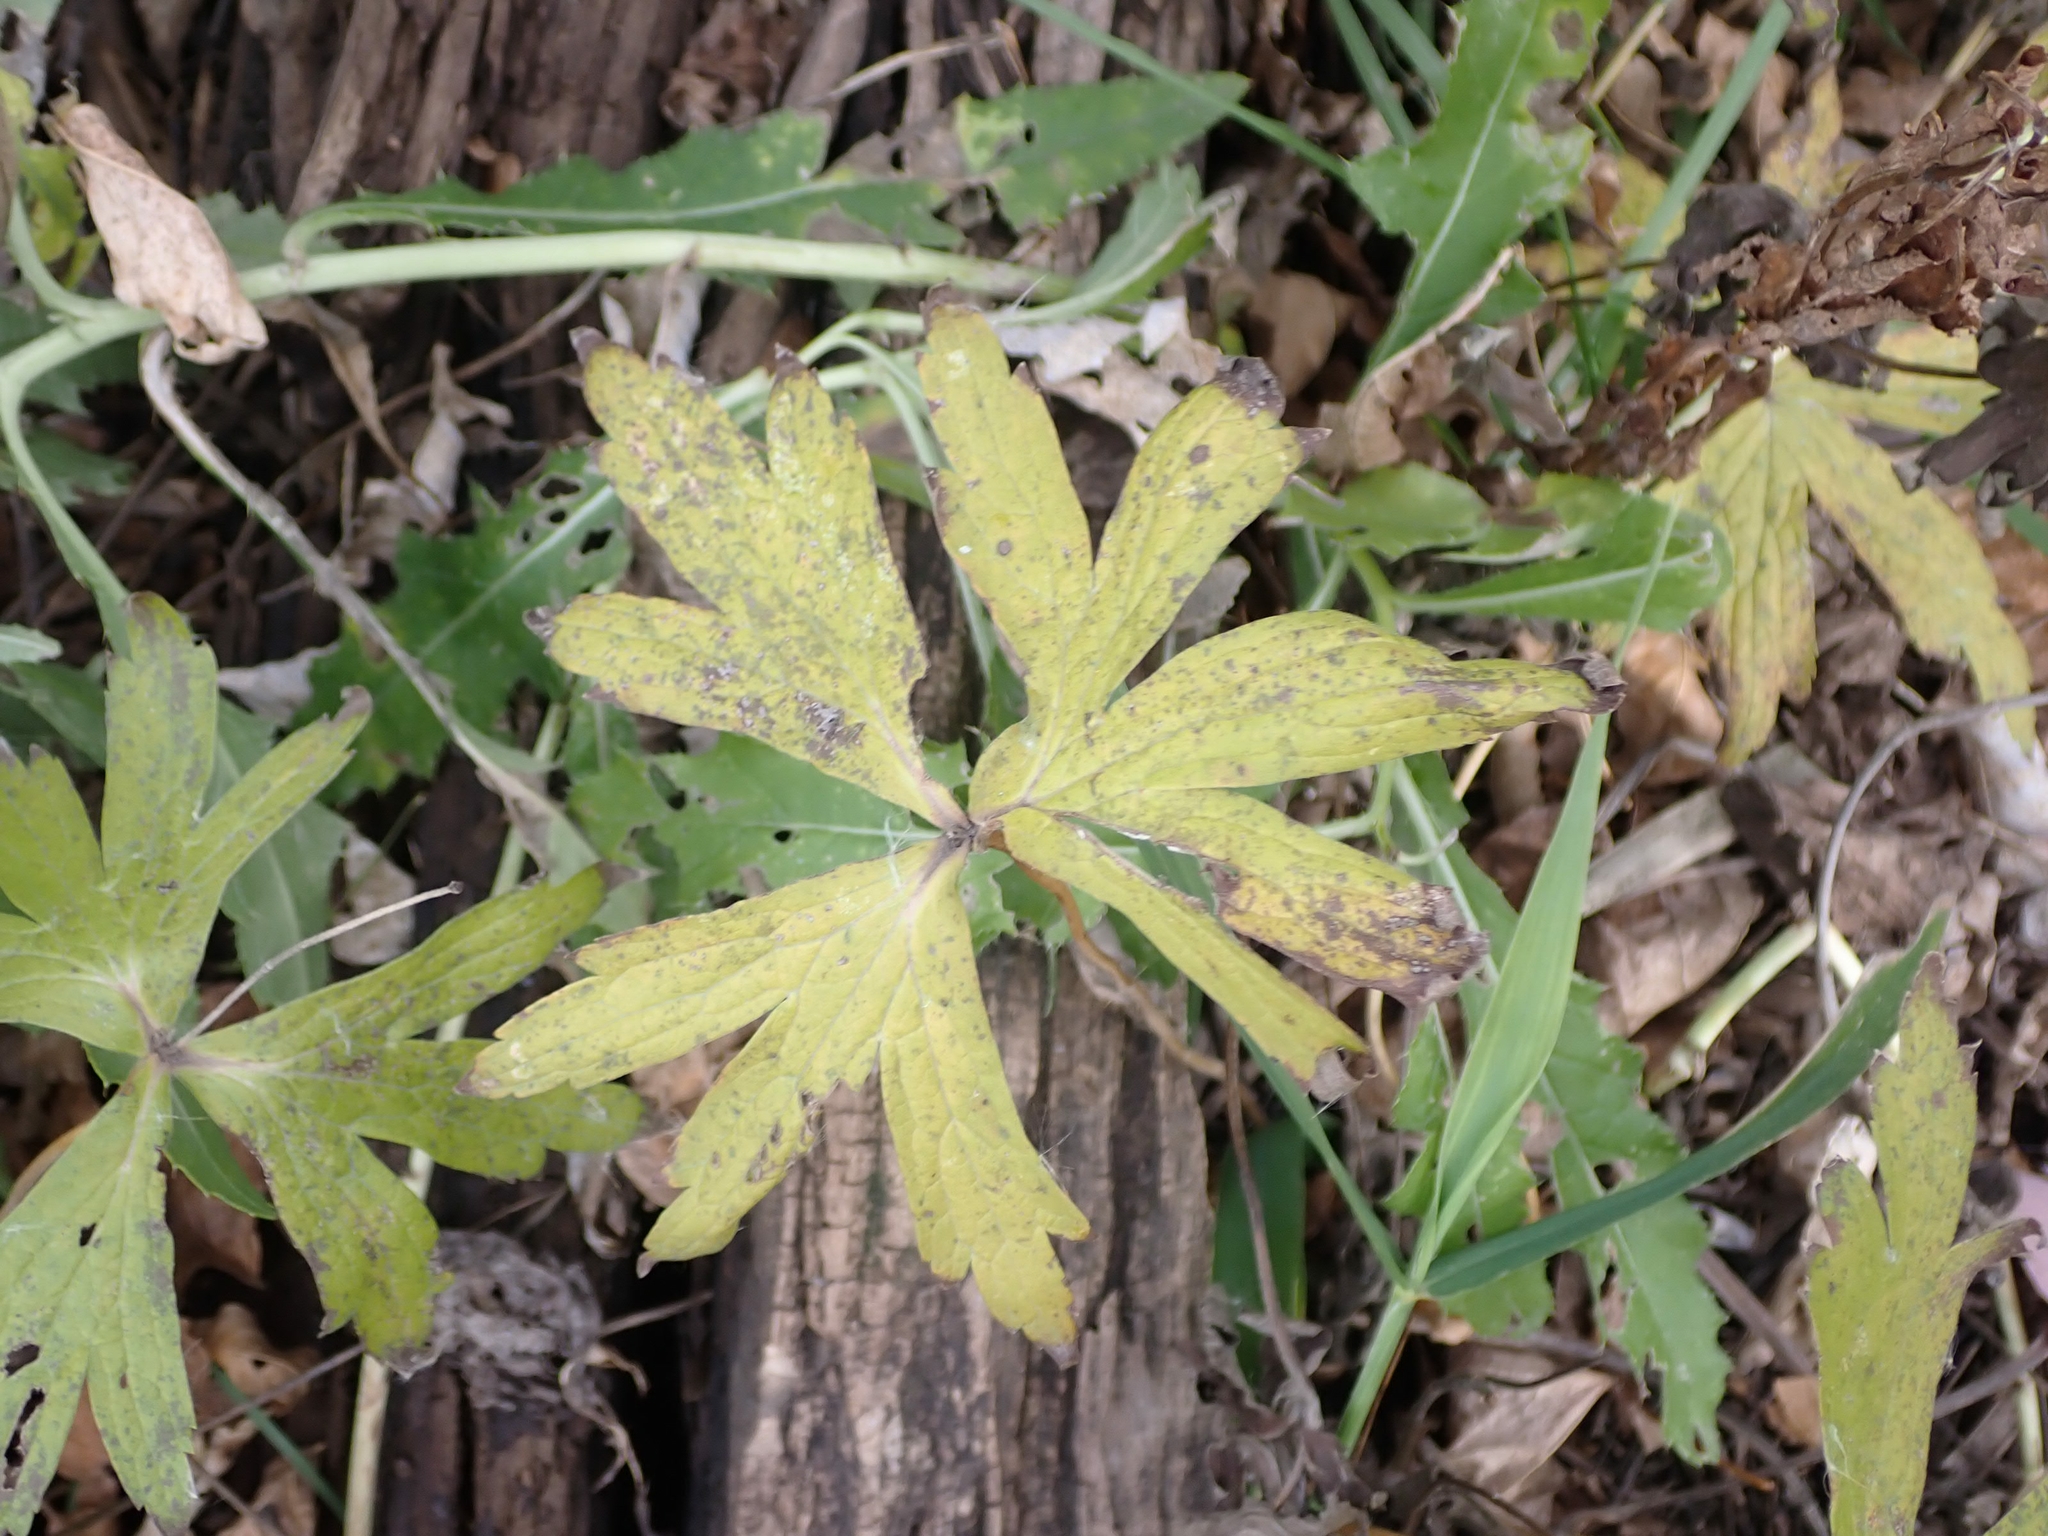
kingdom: Plantae
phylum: Tracheophyta
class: Magnoliopsida
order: Ranunculales
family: Ranunculaceae
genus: Anemonastrum
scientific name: Anemonastrum canadense
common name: Canada anemone
